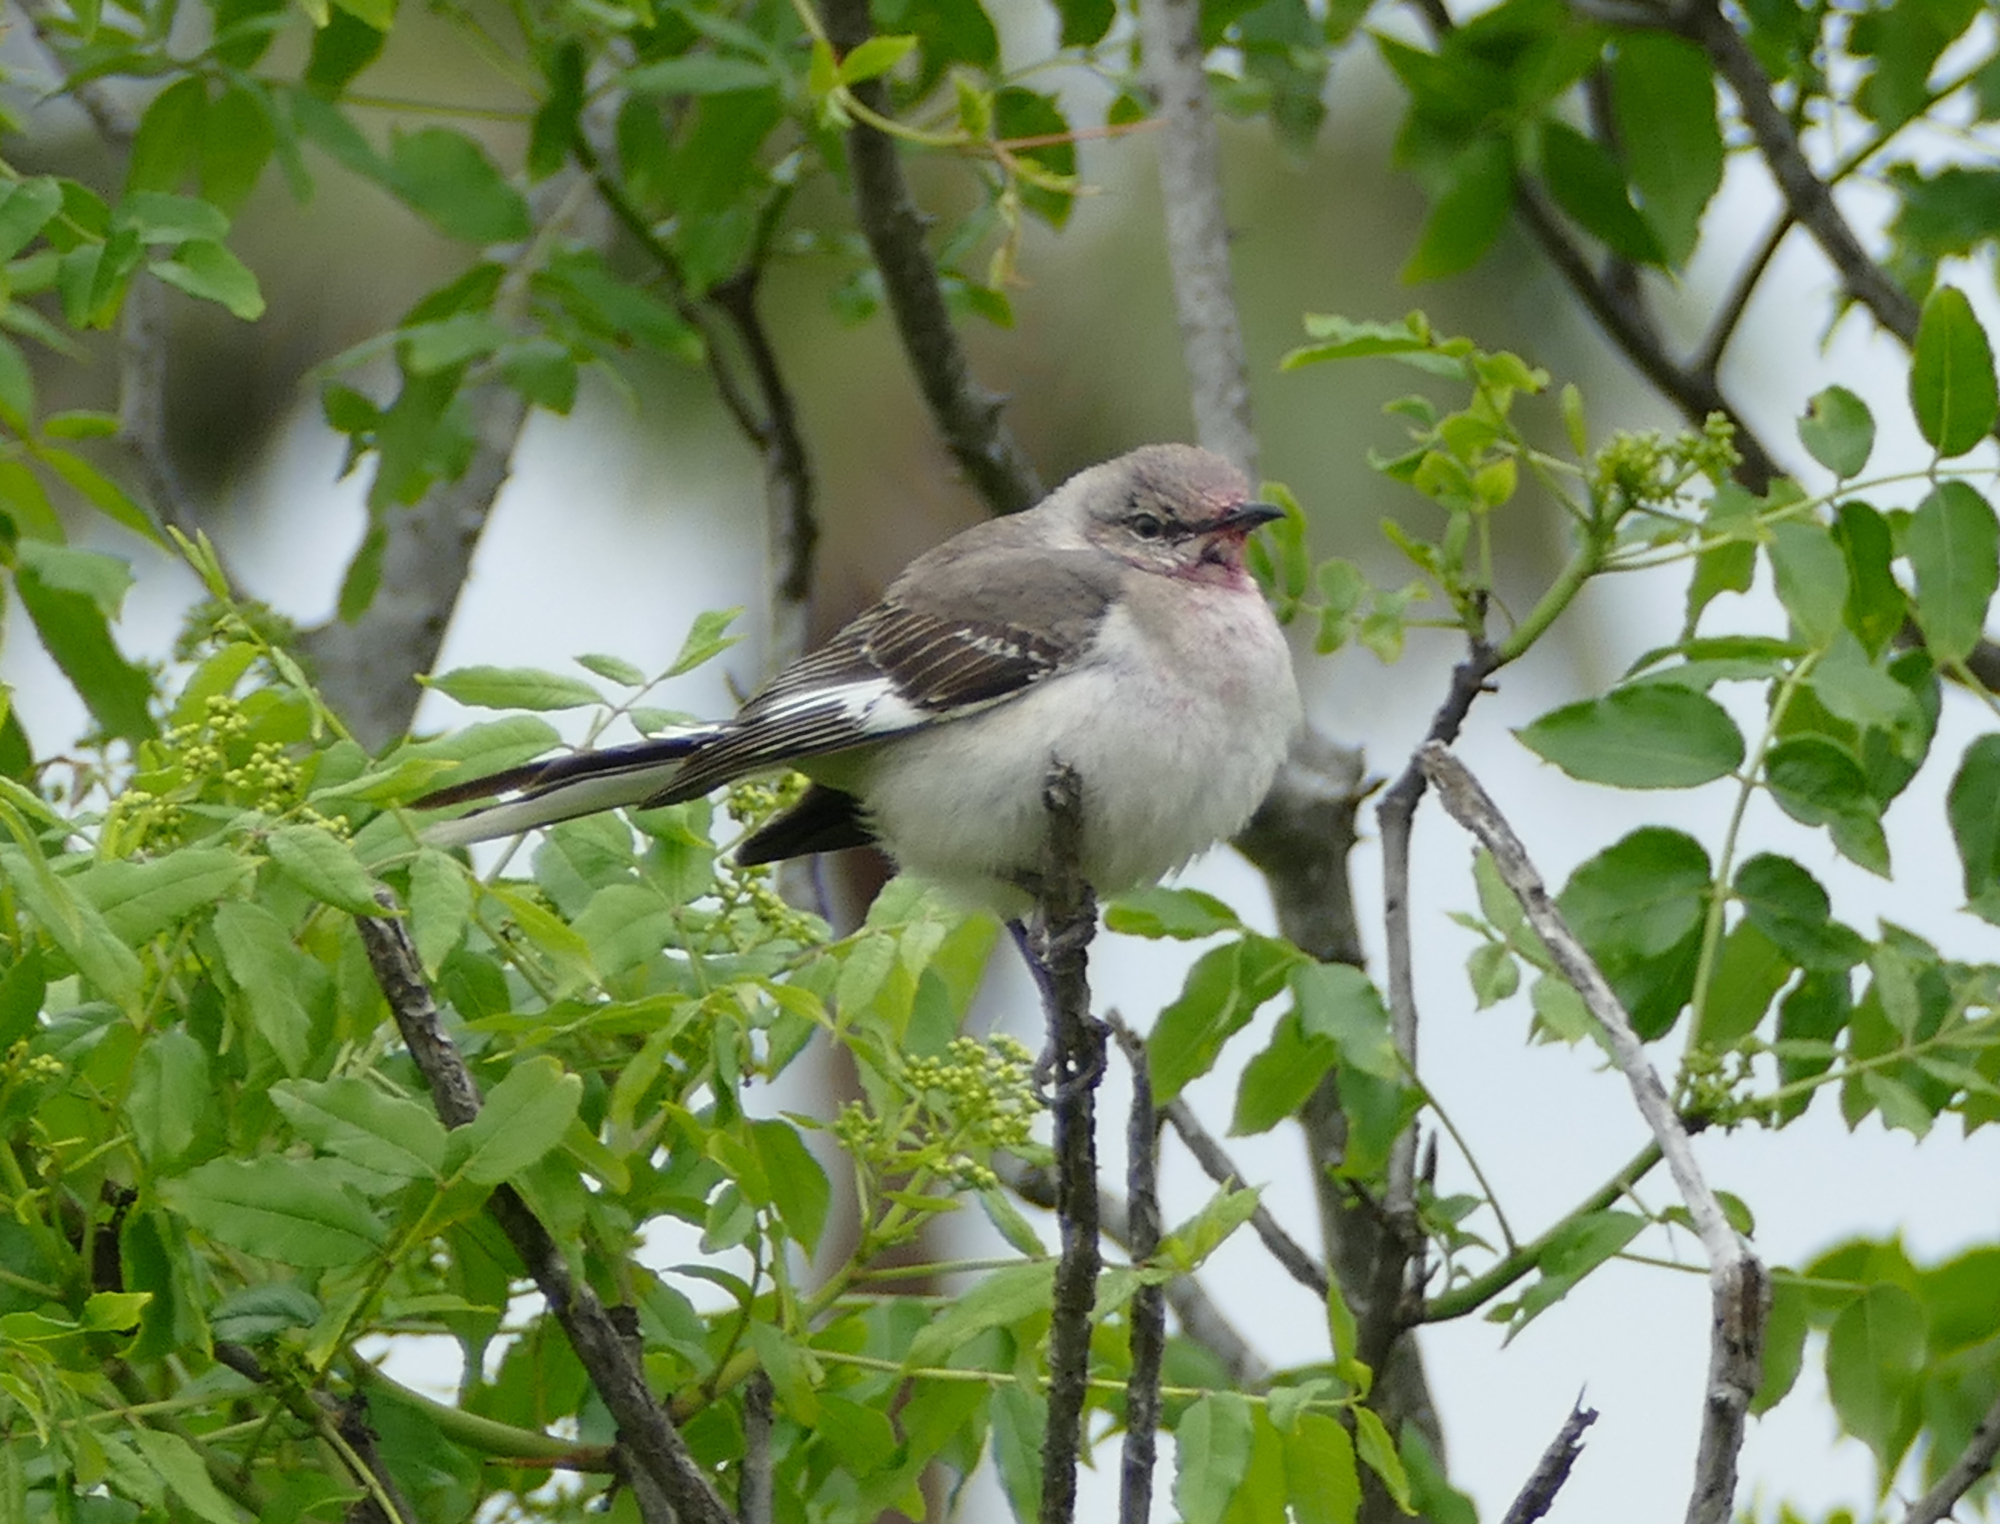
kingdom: Animalia
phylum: Chordata
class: Aves
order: Passeriformes
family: Mimidae
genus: Mimus
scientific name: Mimus polyglottos
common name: Northern mockingbird
